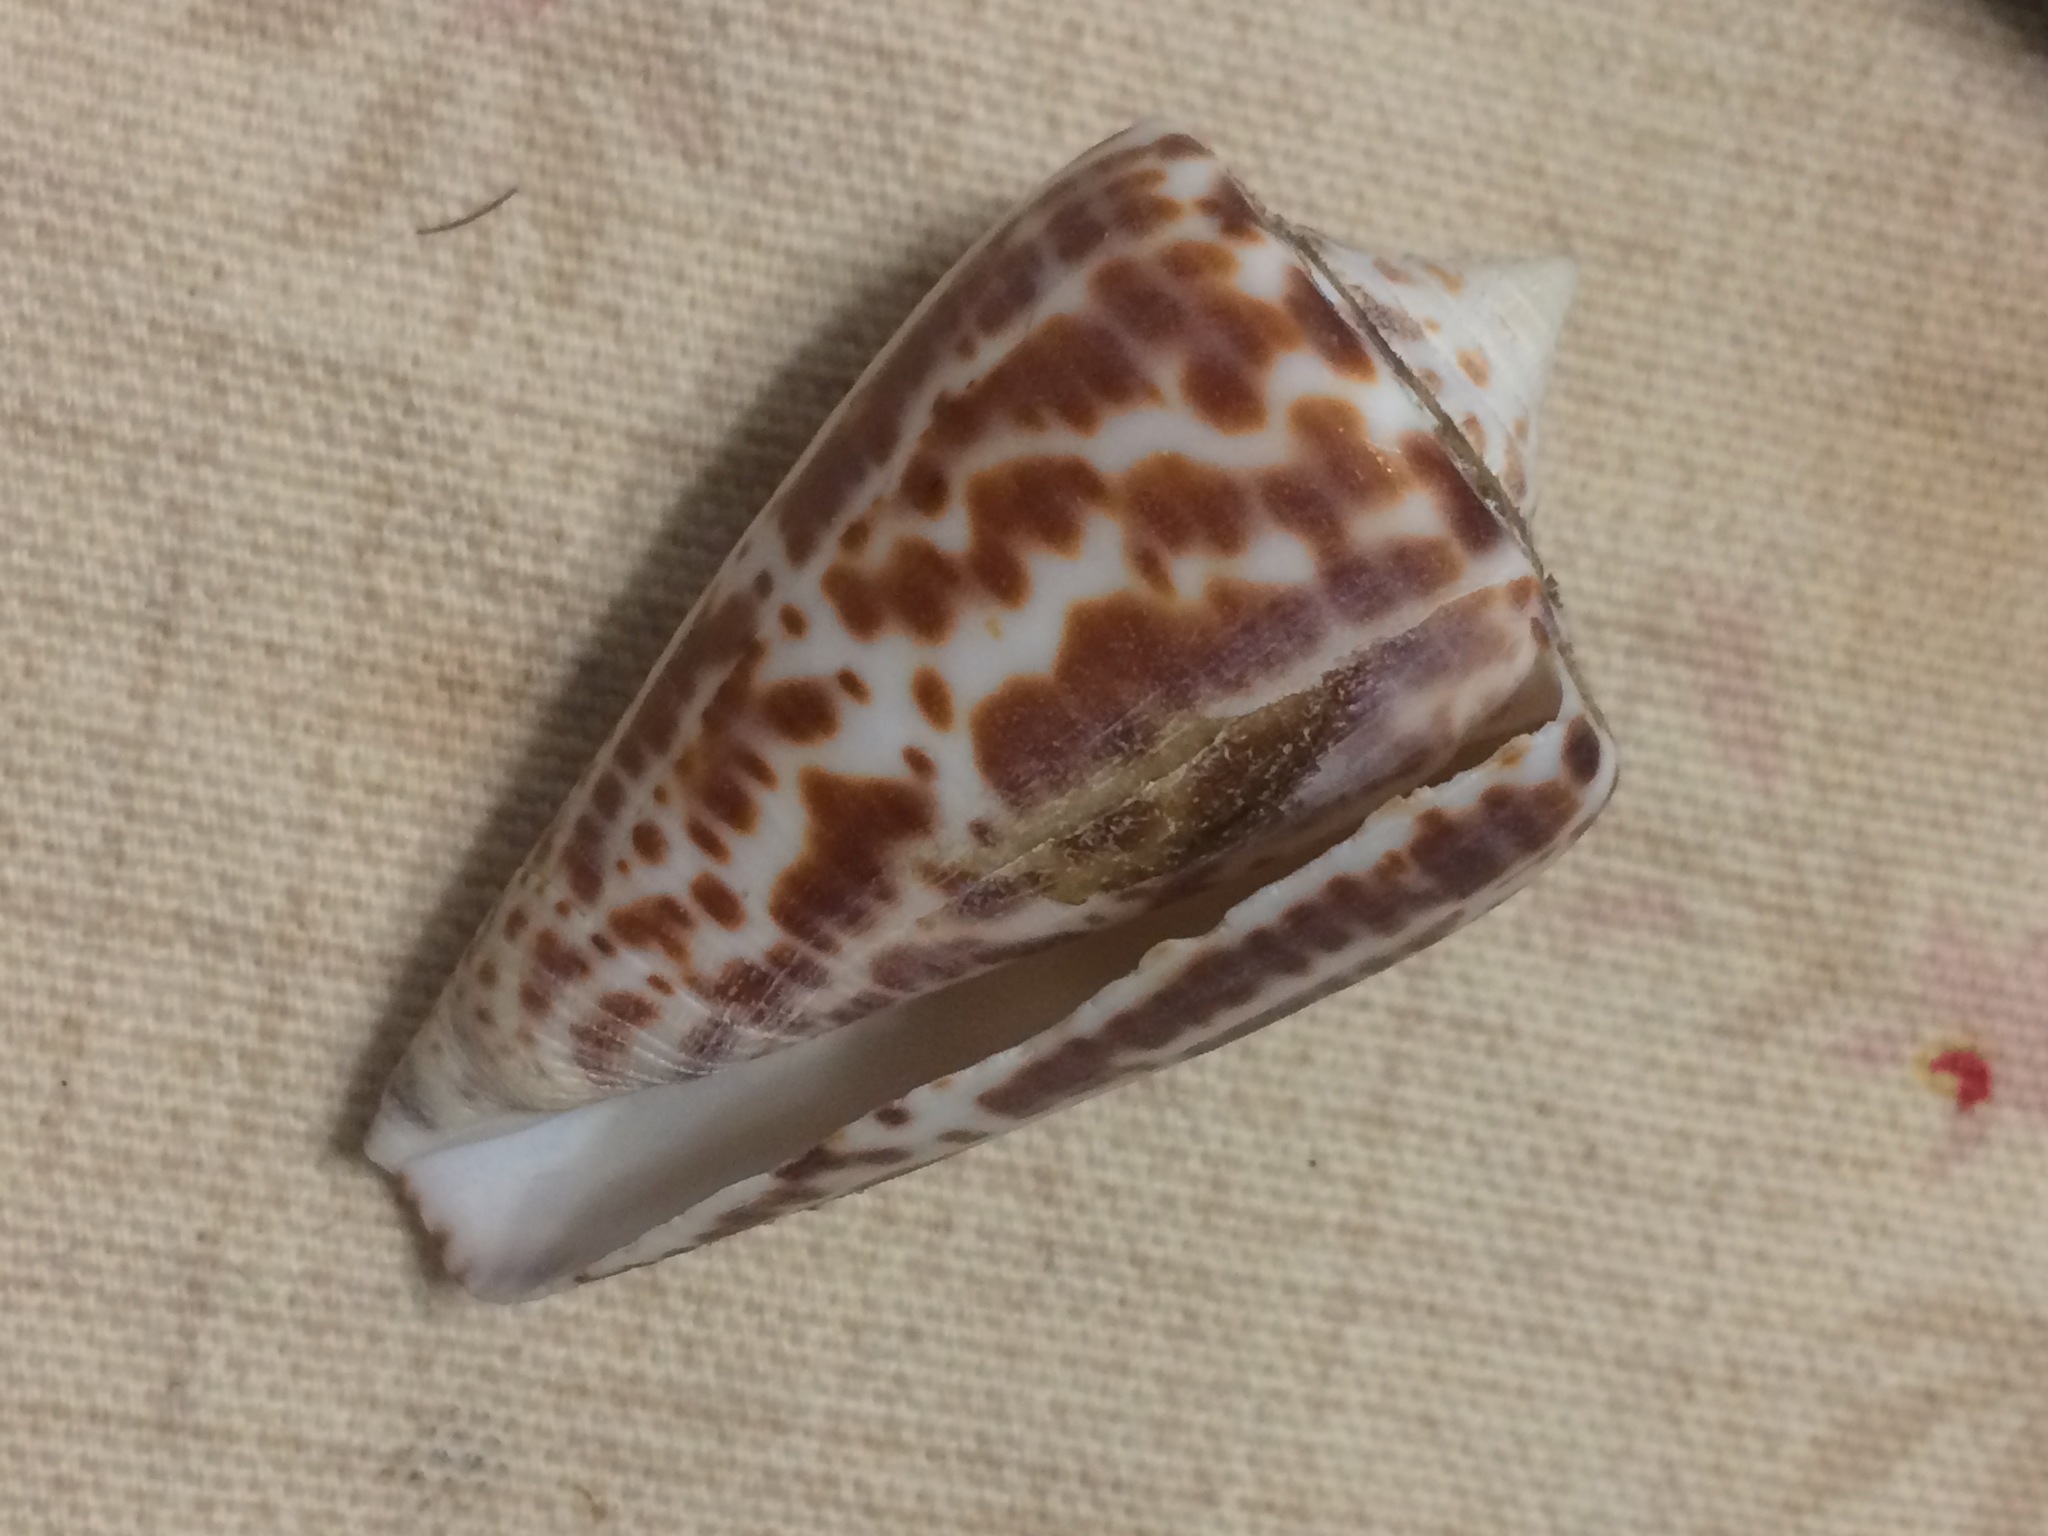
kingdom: Animalia
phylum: Mollusca
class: Gastropoda
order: Neogastropoda
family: Conidae
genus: Conus
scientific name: Conus spurius
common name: Alphabet cone
